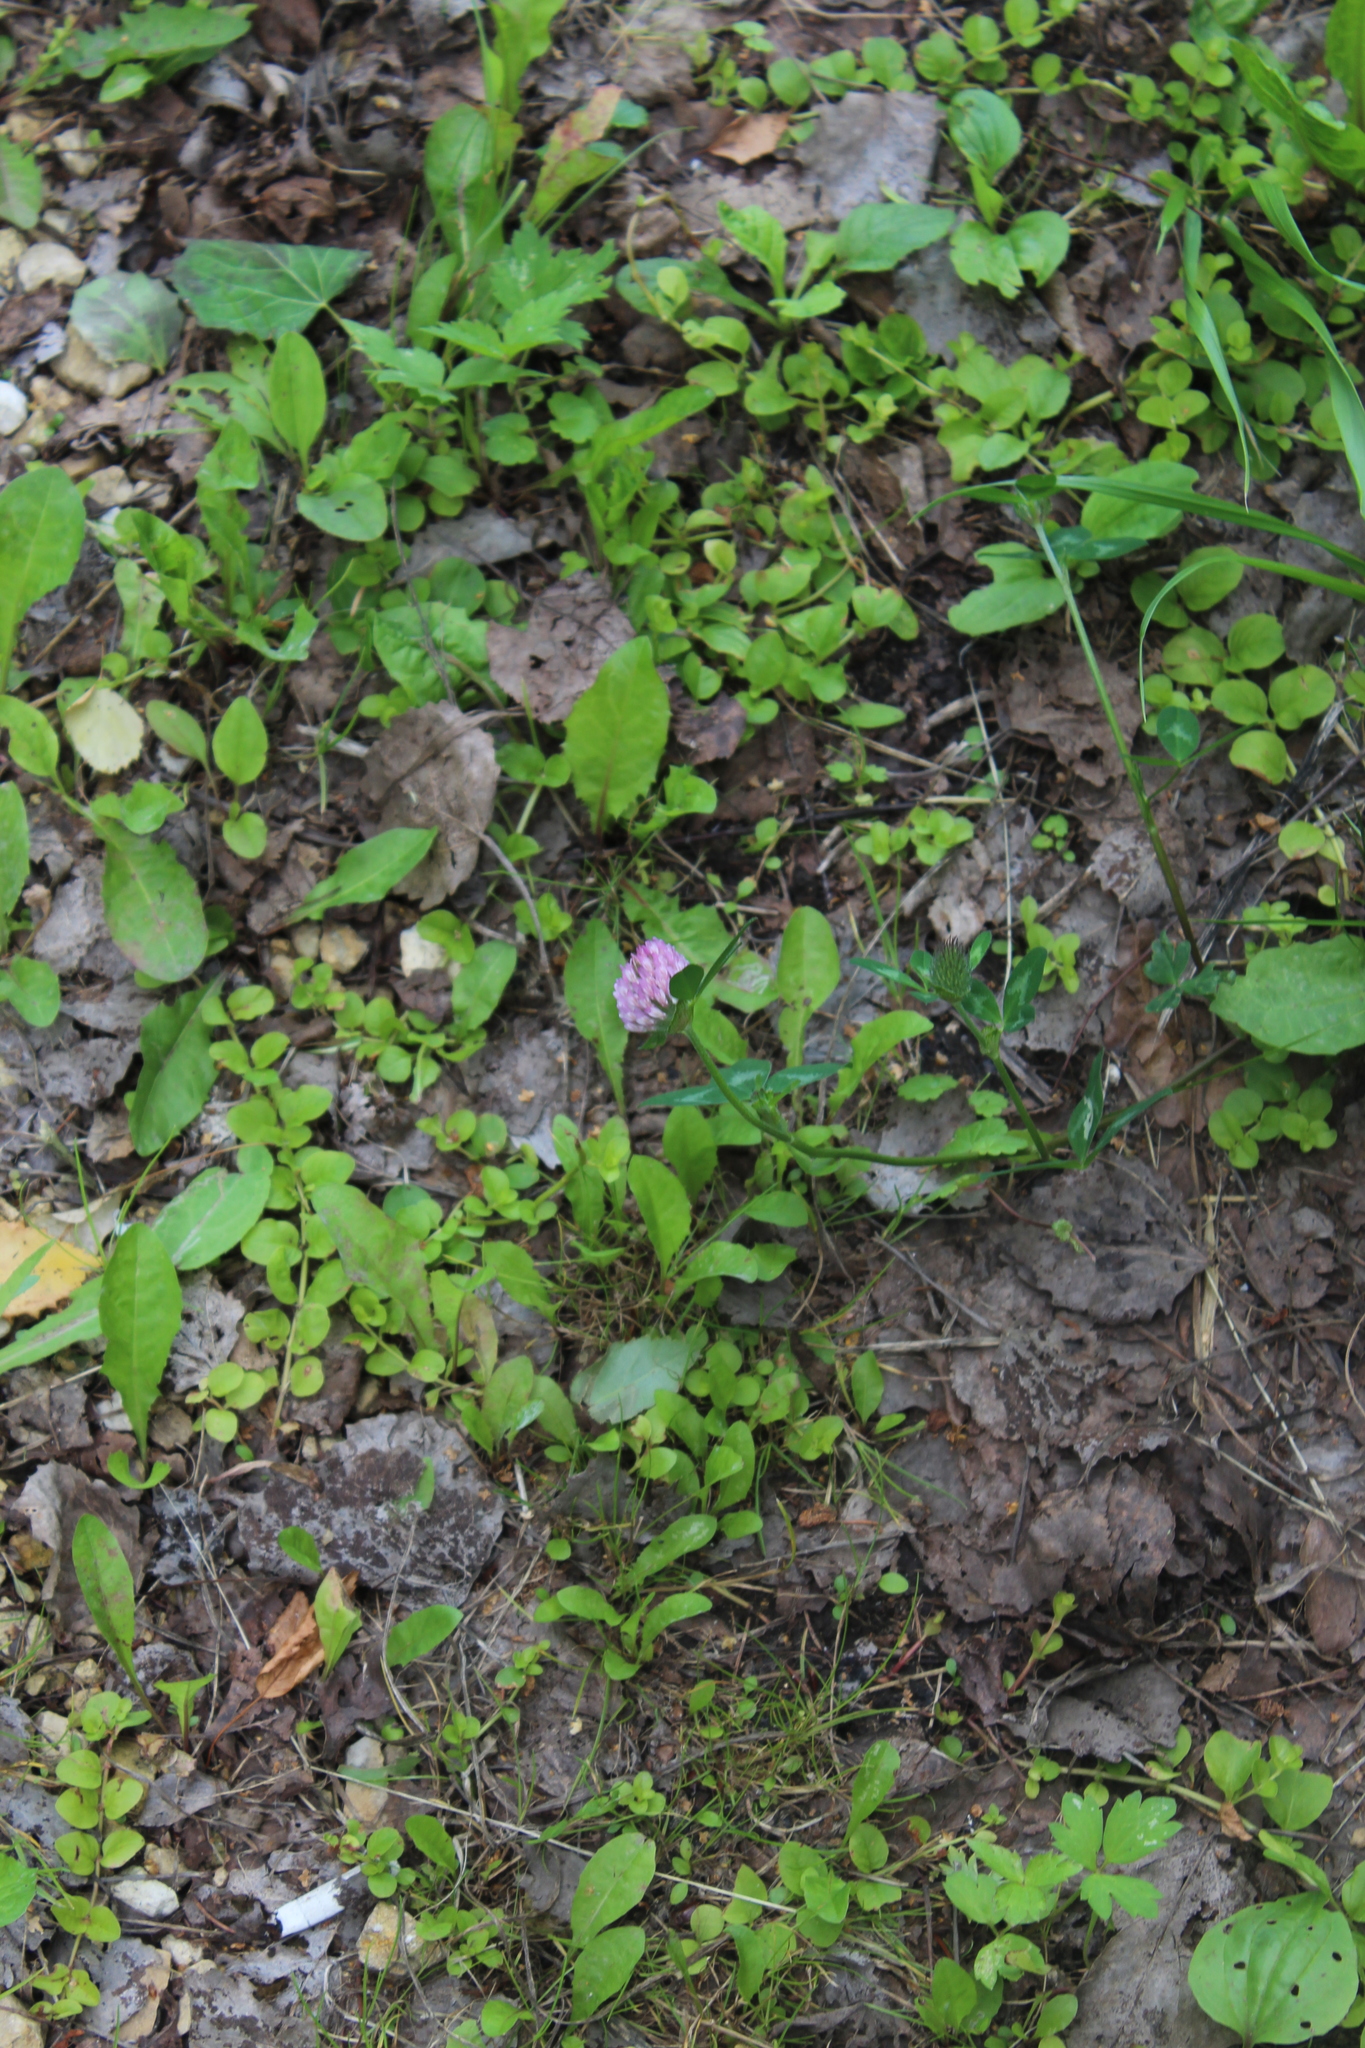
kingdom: Plantae
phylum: Tracheophyta
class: Magnoliopsida
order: Fabales
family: Fabaceae
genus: Trifolium
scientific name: Trifolium pratense
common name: Red clover
